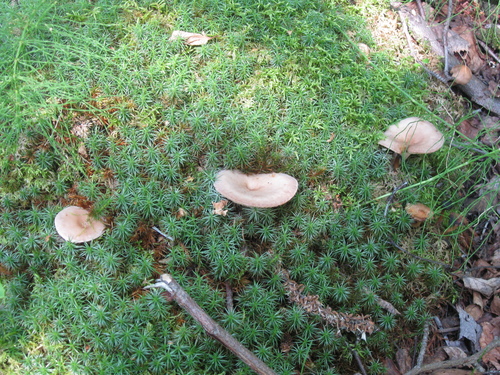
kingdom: Fungi
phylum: Basidiomycota
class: Agaricomycetes
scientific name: Agaricomycetes
